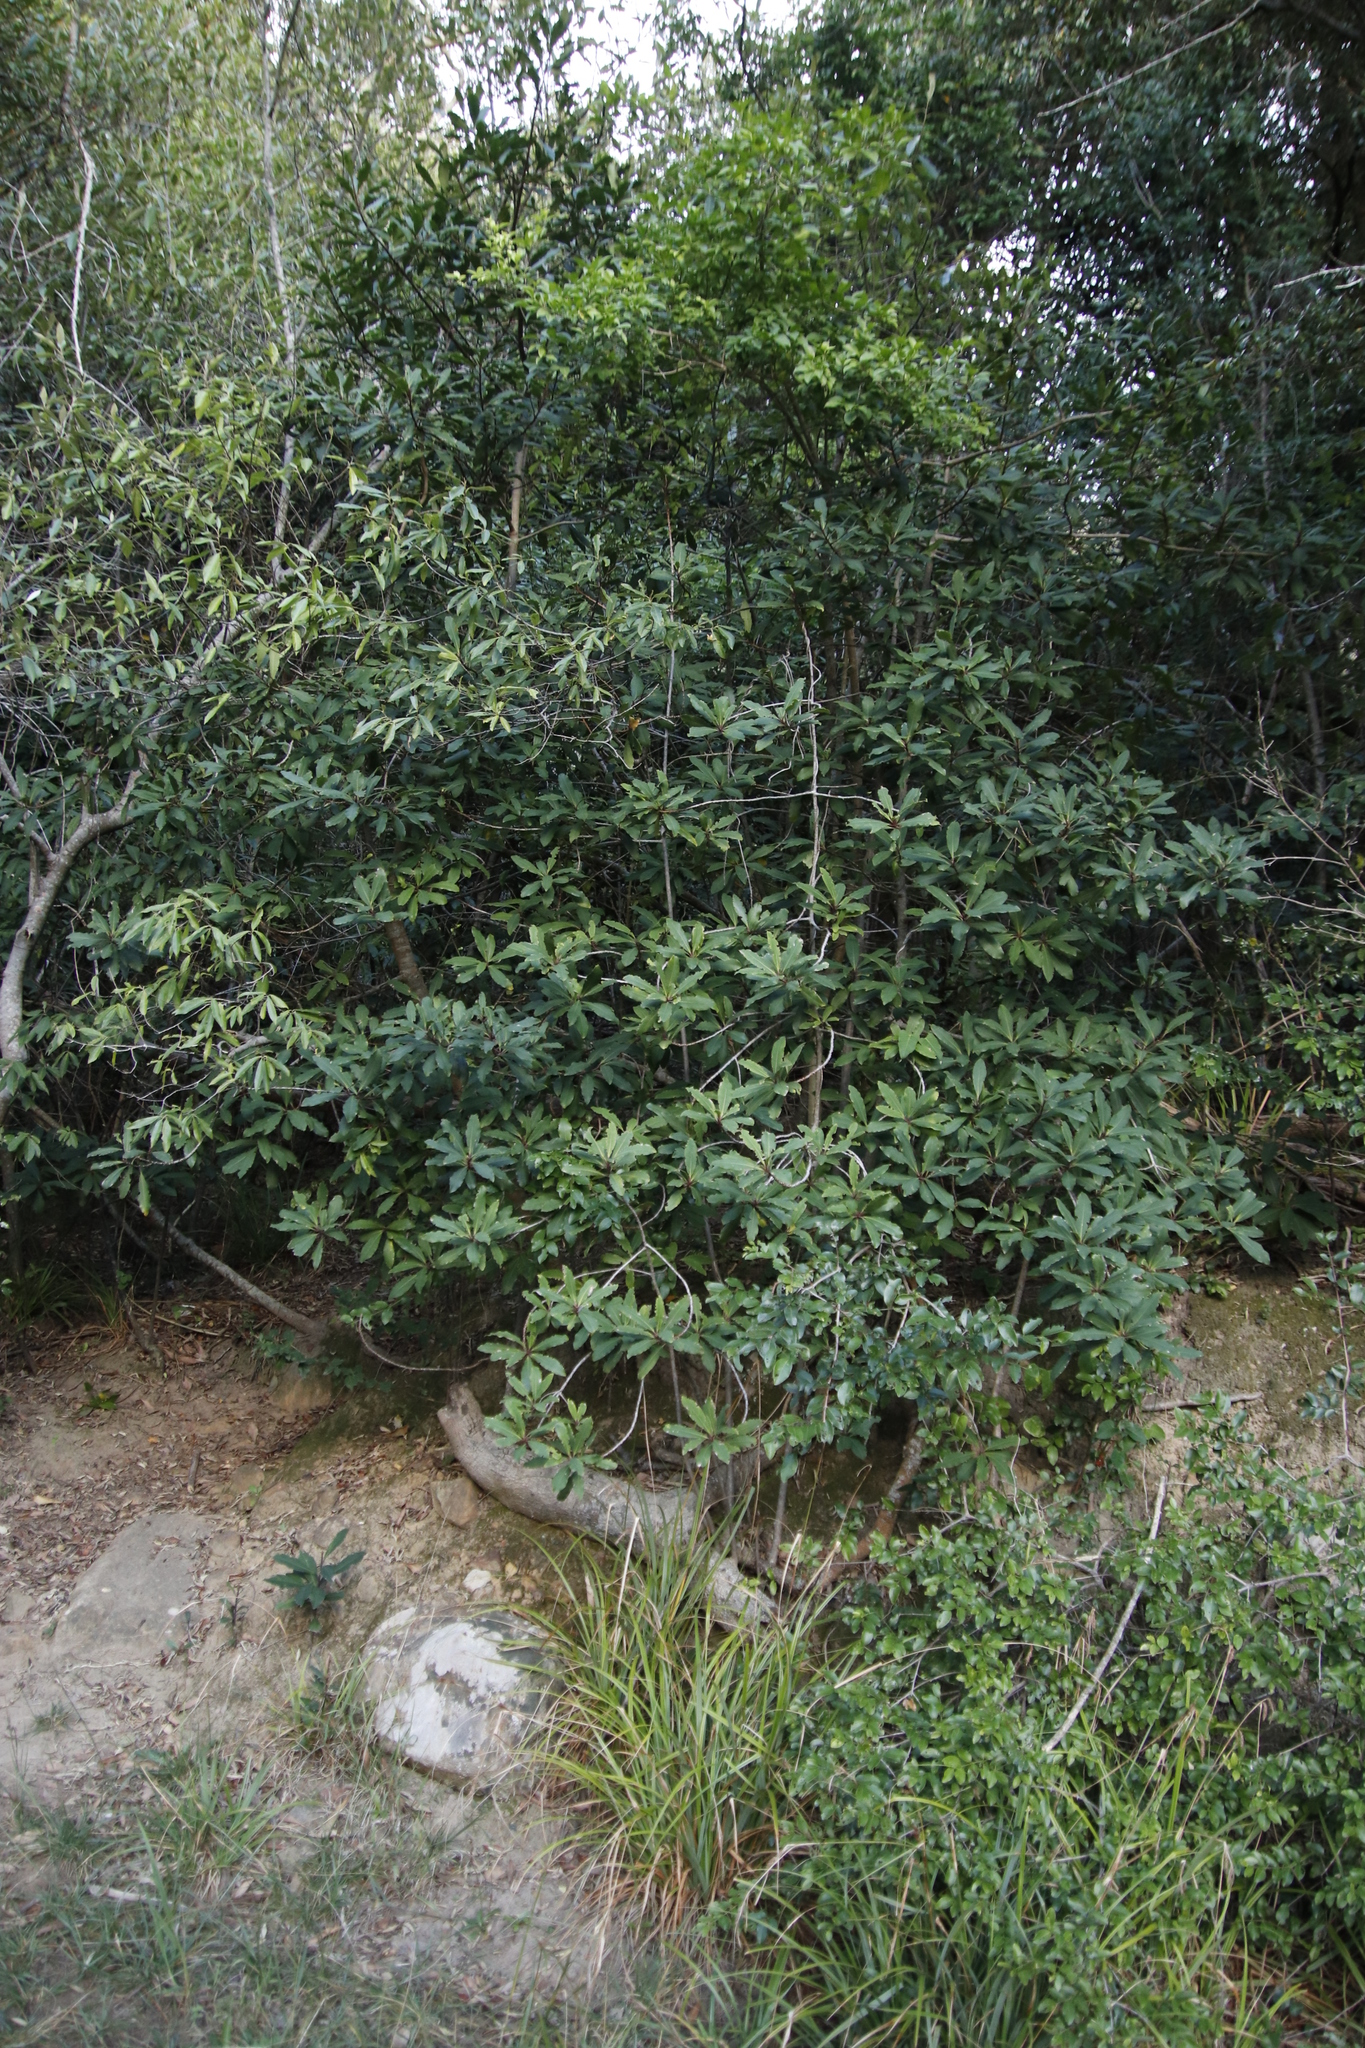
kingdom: Plantae
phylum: Tracheophyta
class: Magnoliopsida
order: Ericales
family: Primulaceae
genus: Myrsine
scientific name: Myrsine melanophloeos
